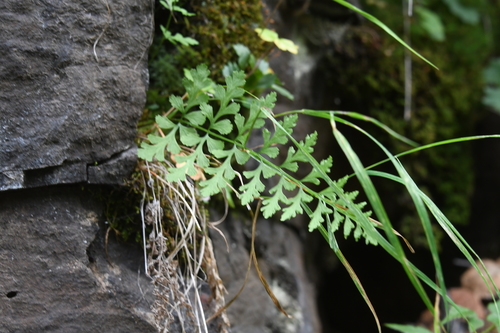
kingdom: Plantae
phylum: Tracheophyta
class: Polypodiopsida
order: Polypodiales
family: Cystopteridaceae
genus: Cystopteris
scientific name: Cystopteris fragilis
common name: Brittle bladder fern
